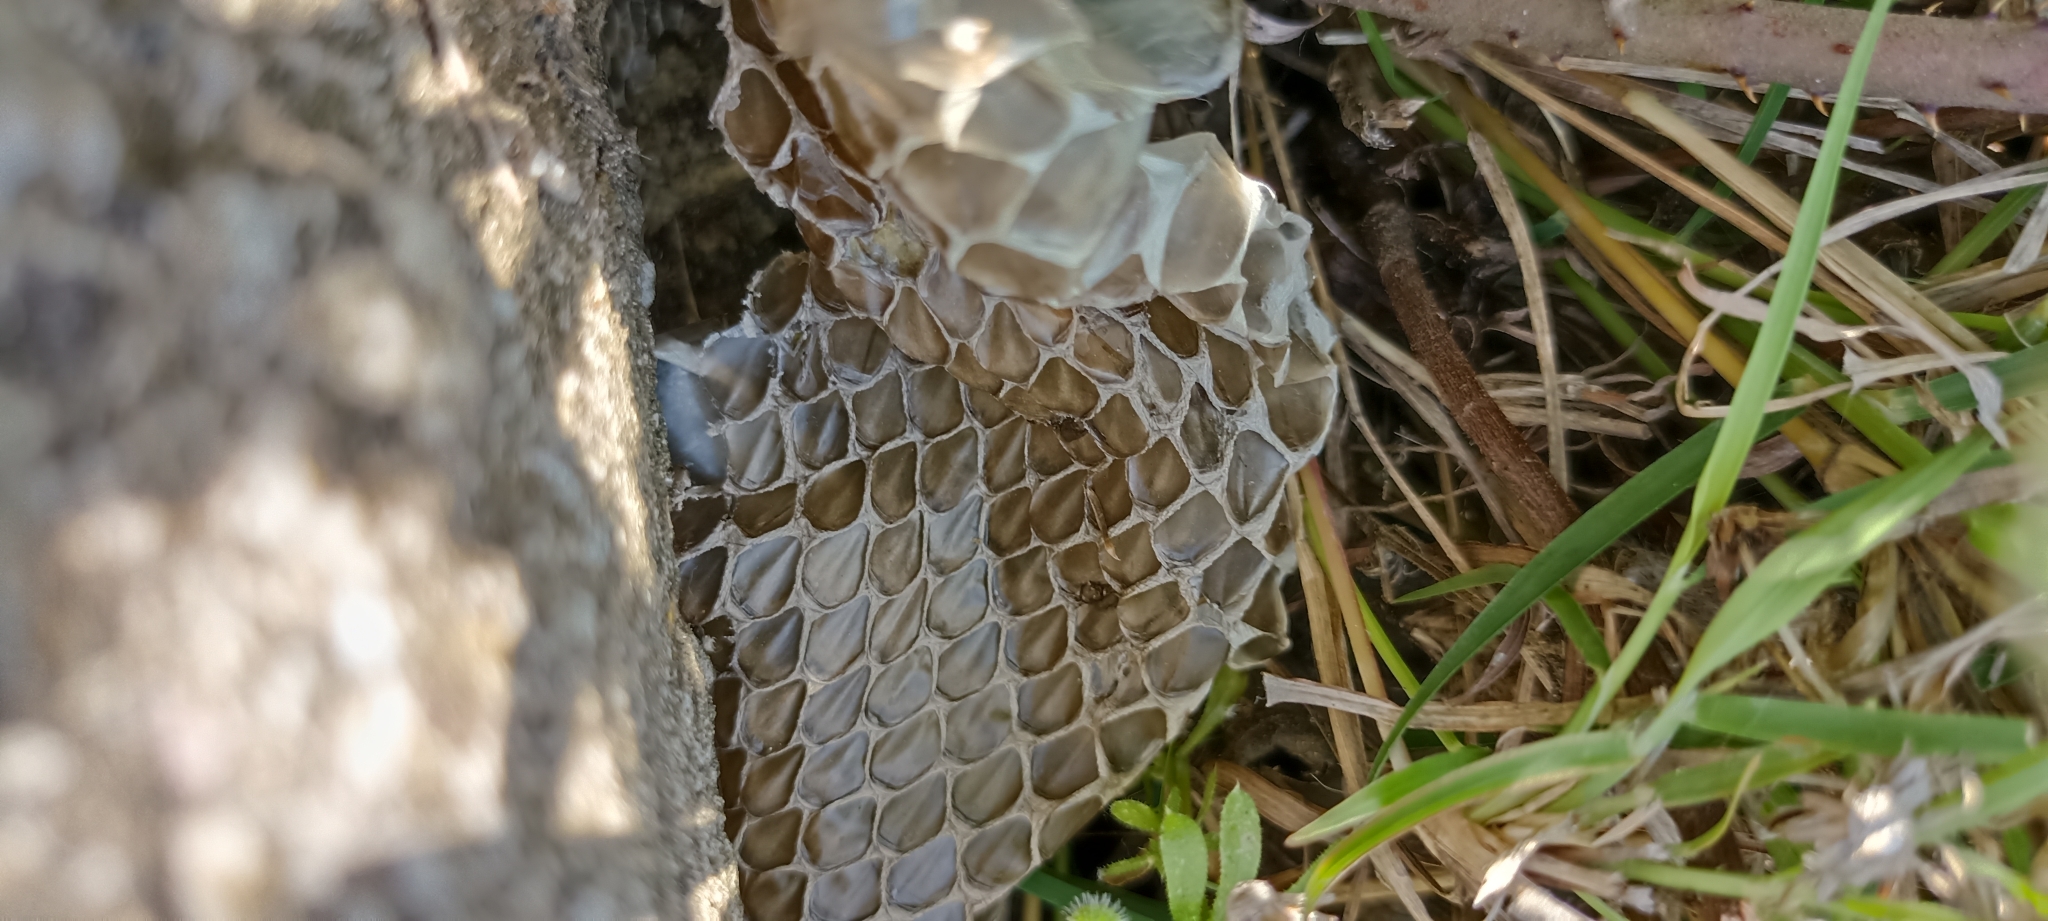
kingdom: Animalia
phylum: Chordata
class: Squamata
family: Psammophiidae
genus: Malpolon
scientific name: Malpolon monspessulanus
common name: Montpellier snake
